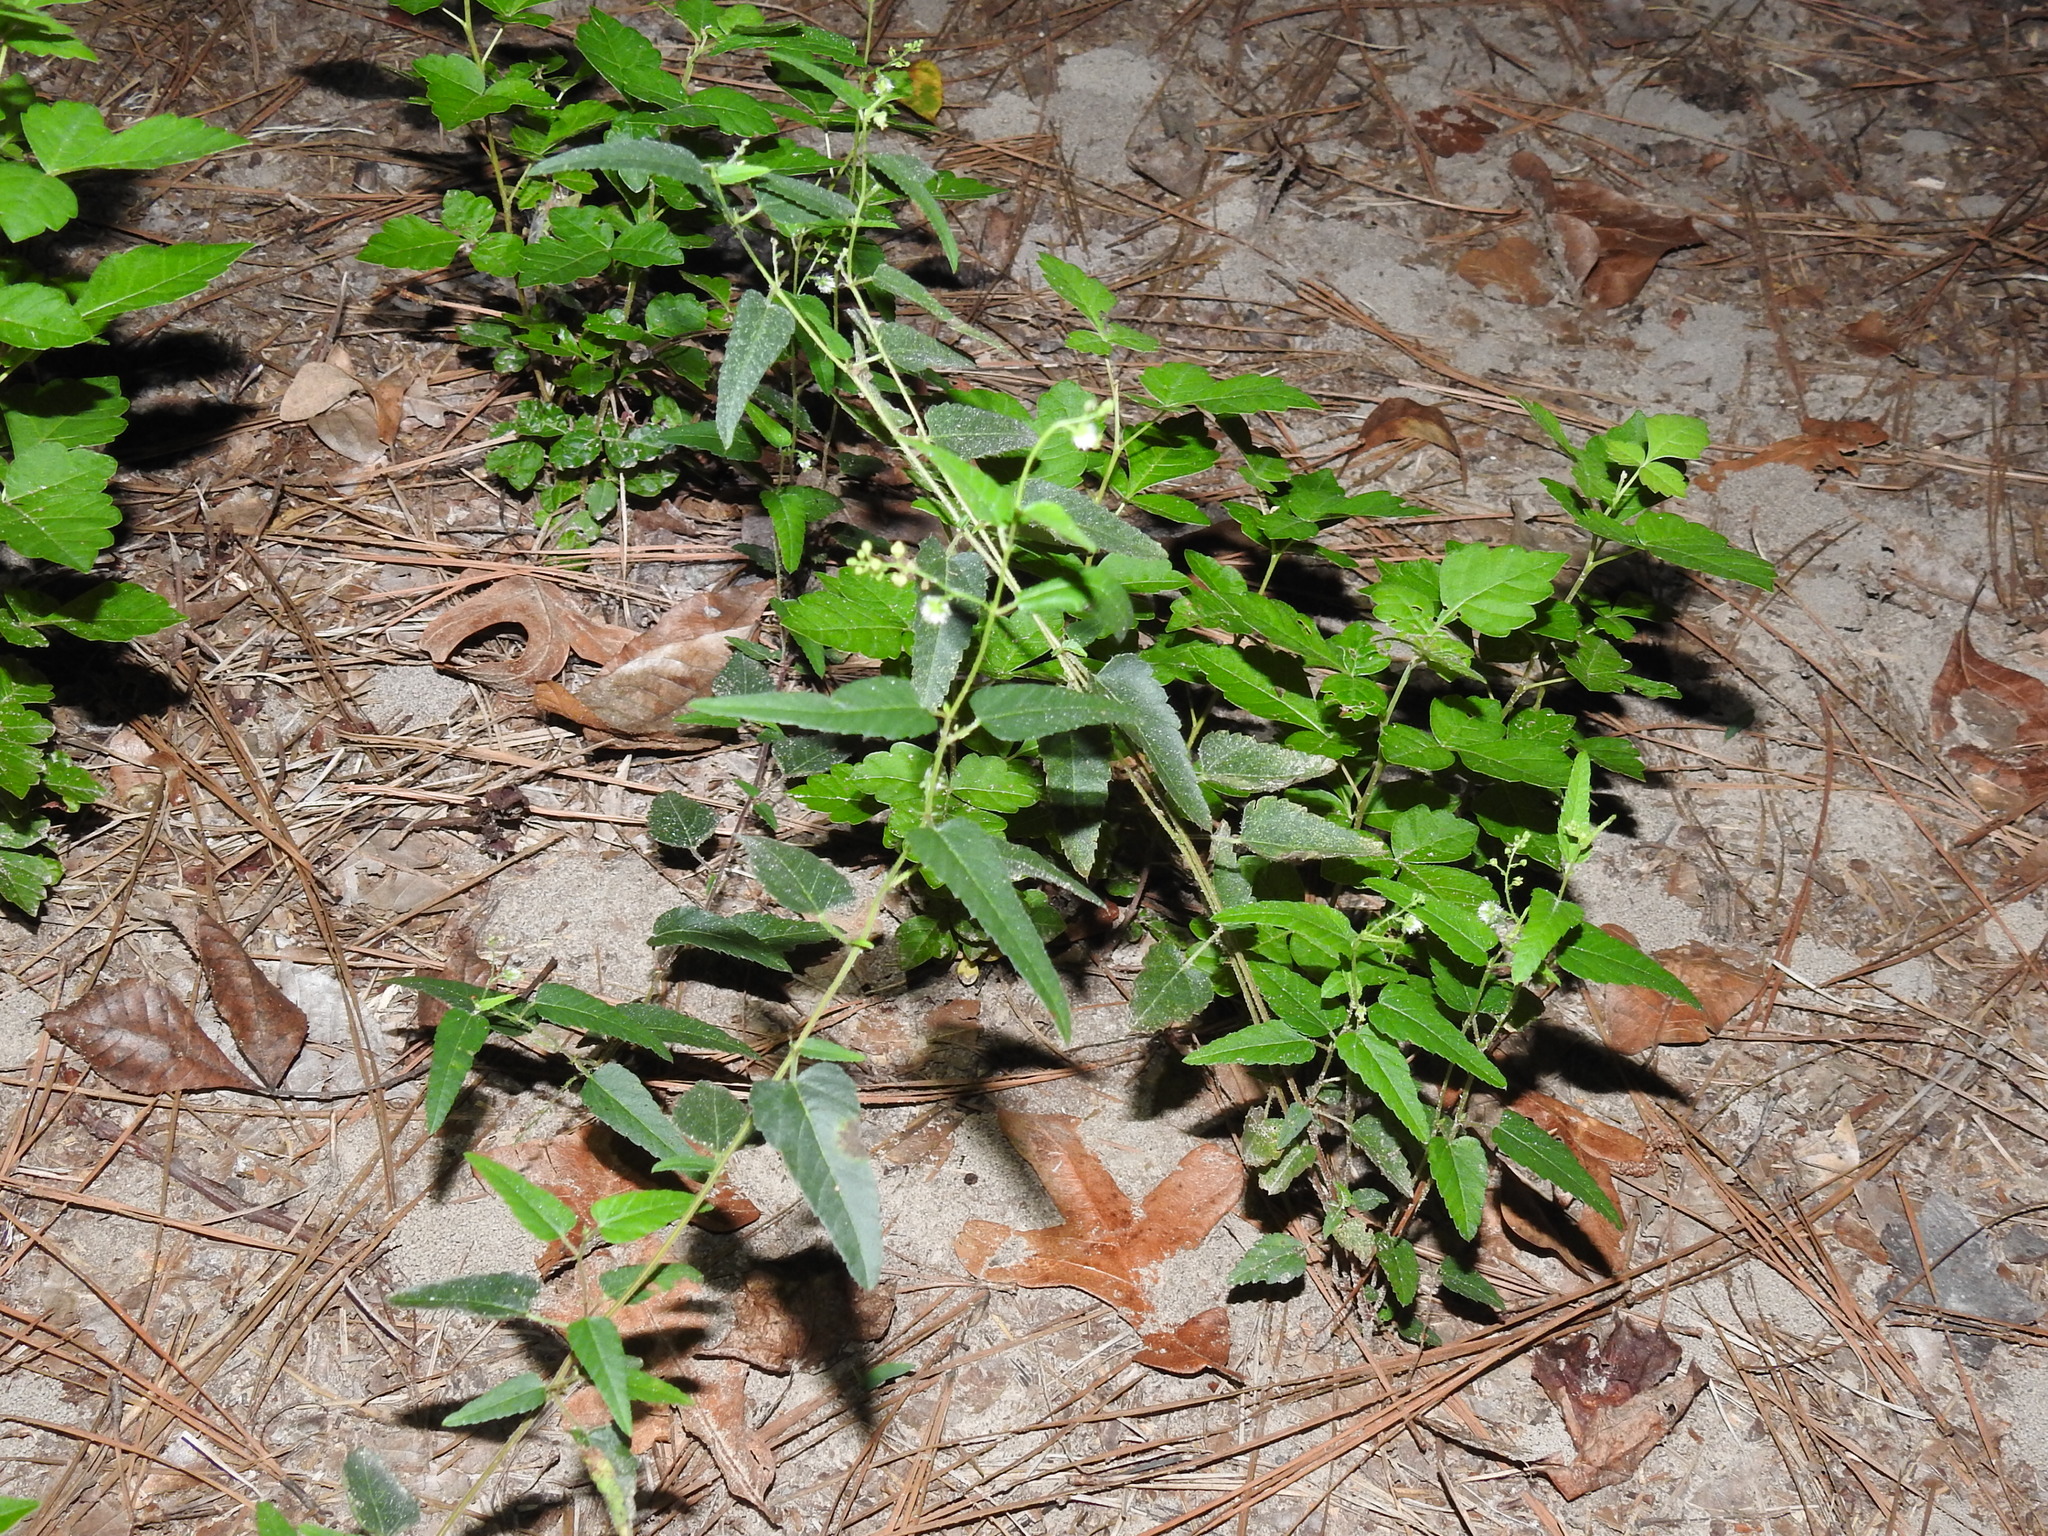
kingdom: Plantae
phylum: Tracheophyta
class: Magnoliopsida
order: Malpighiales
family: Euphorbiaceae
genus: Tragia
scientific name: Tragia urticifolia
